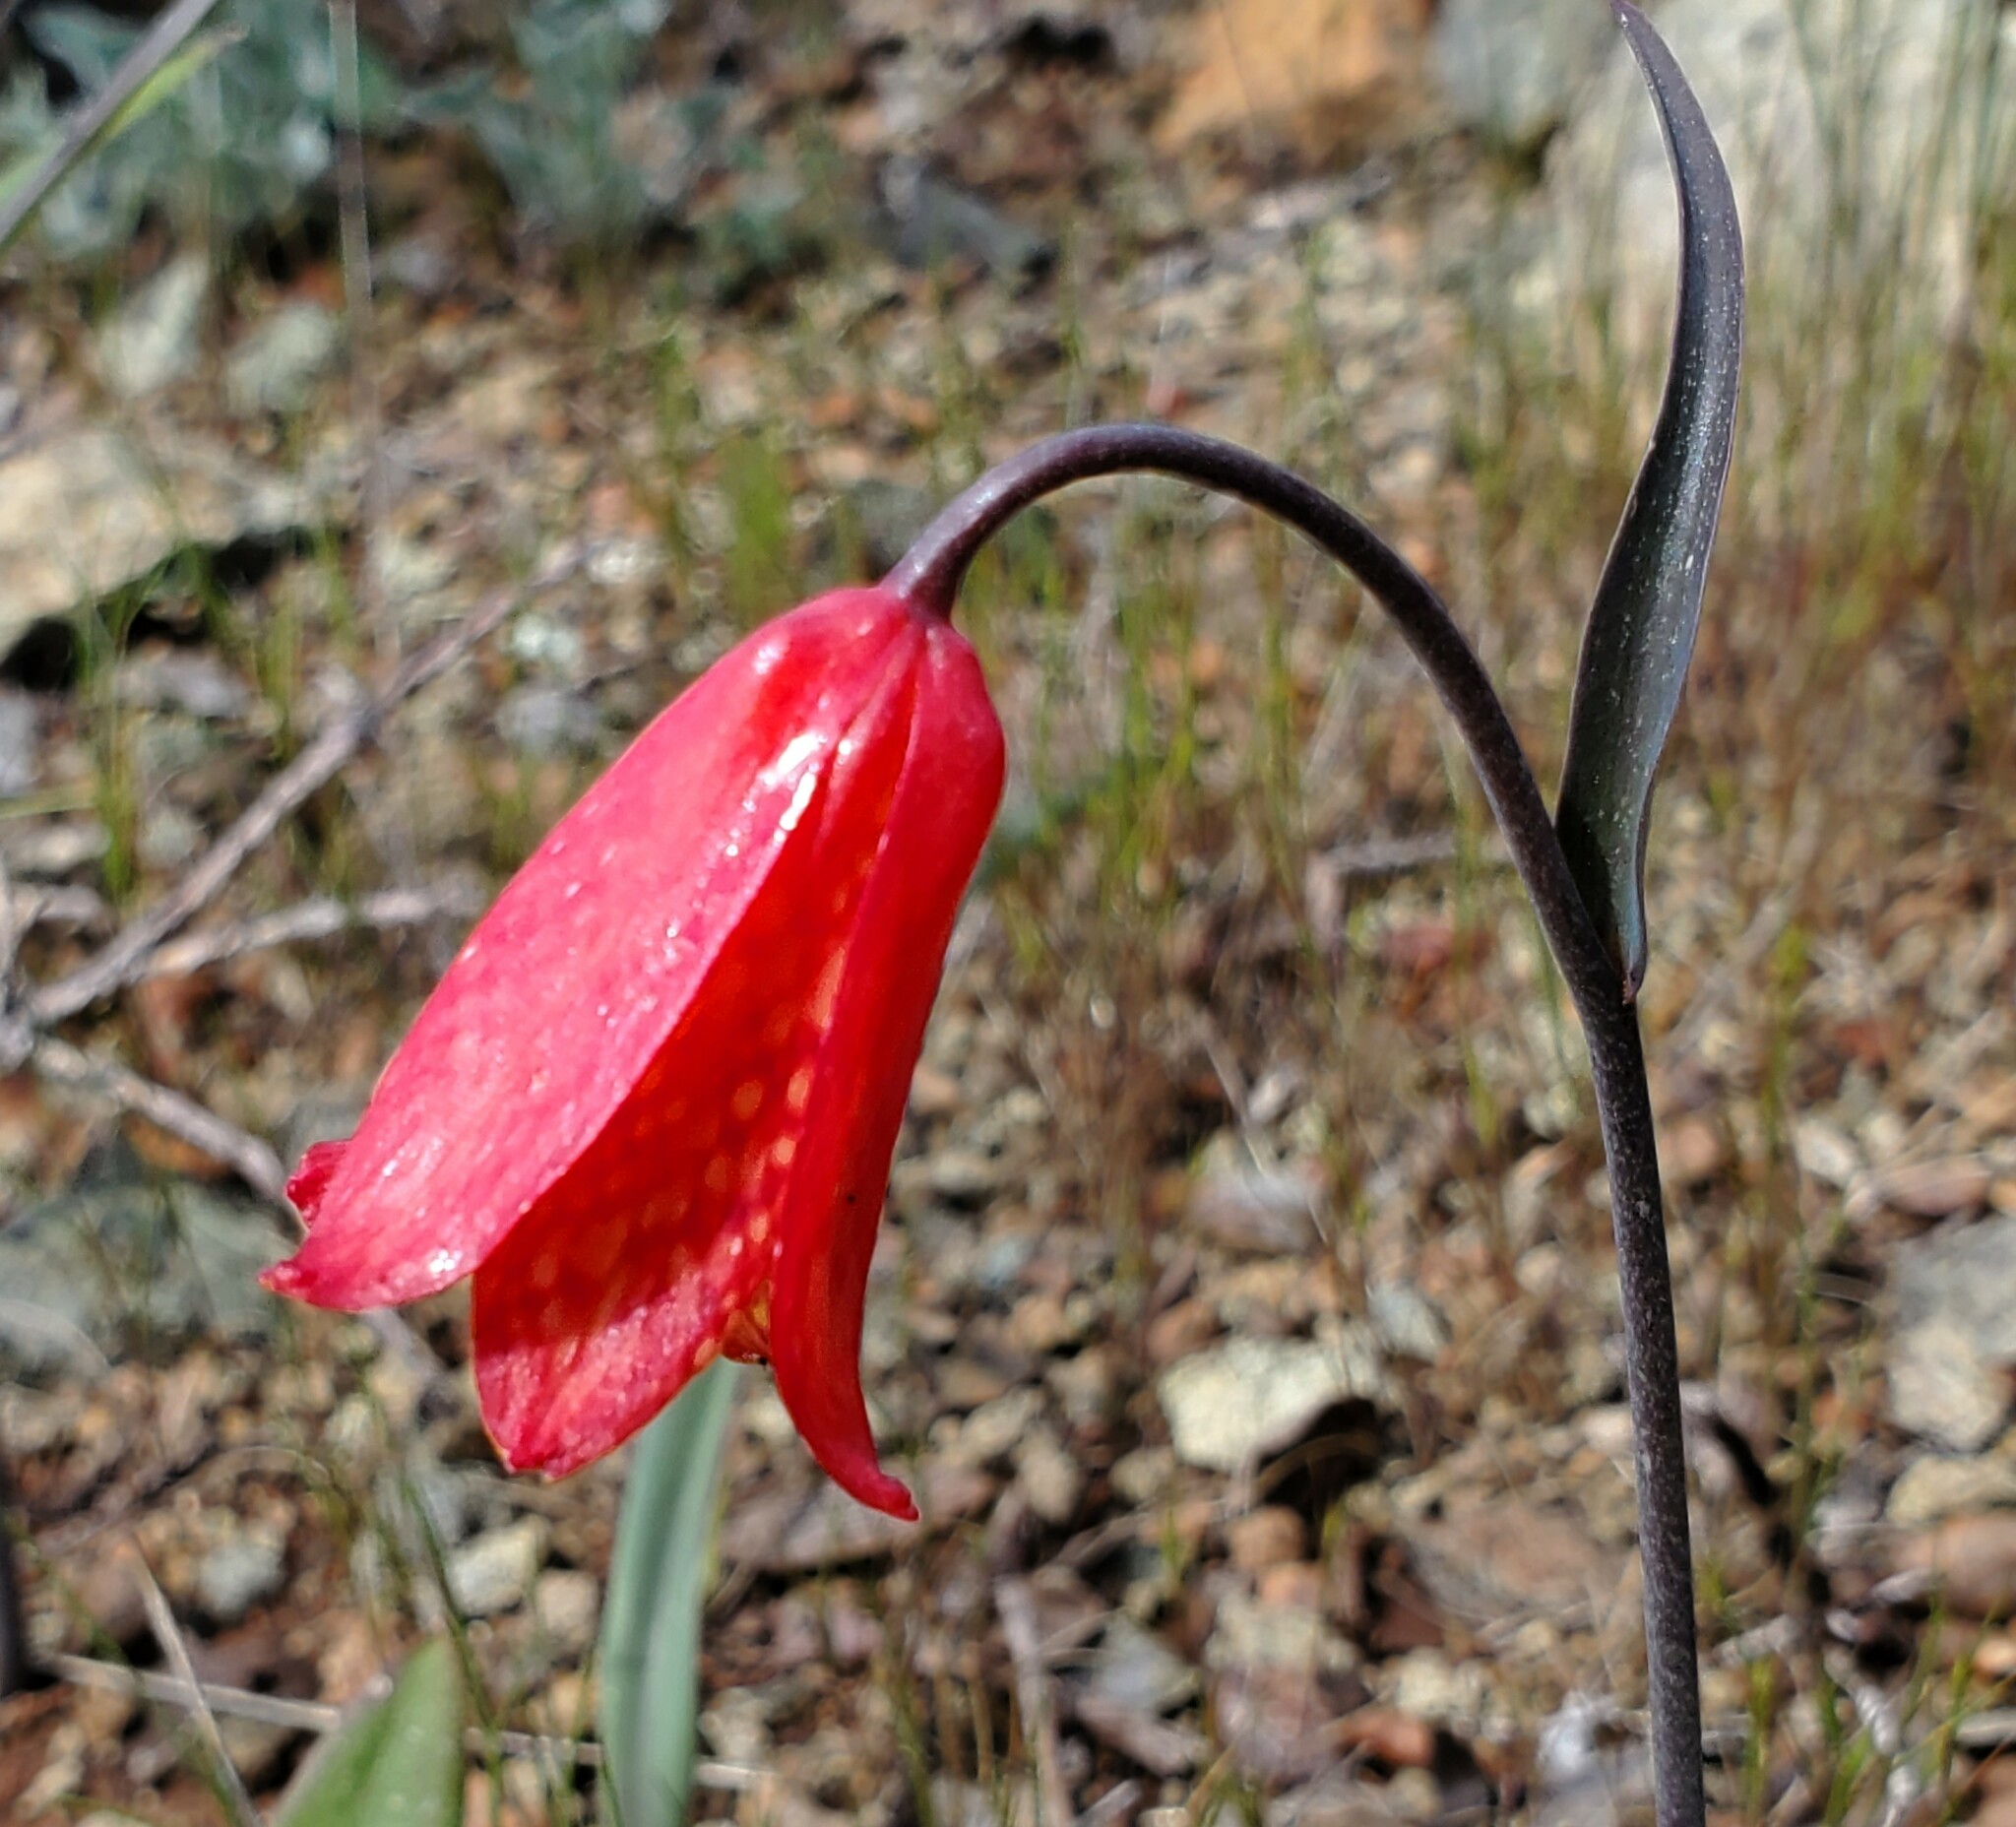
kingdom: Plantae
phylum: Tracheophyta
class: Liliopsida
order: Liliales
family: Liliaceae
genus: Fritillaria
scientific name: Fritillaria recurva
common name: Scarlet fritillary
